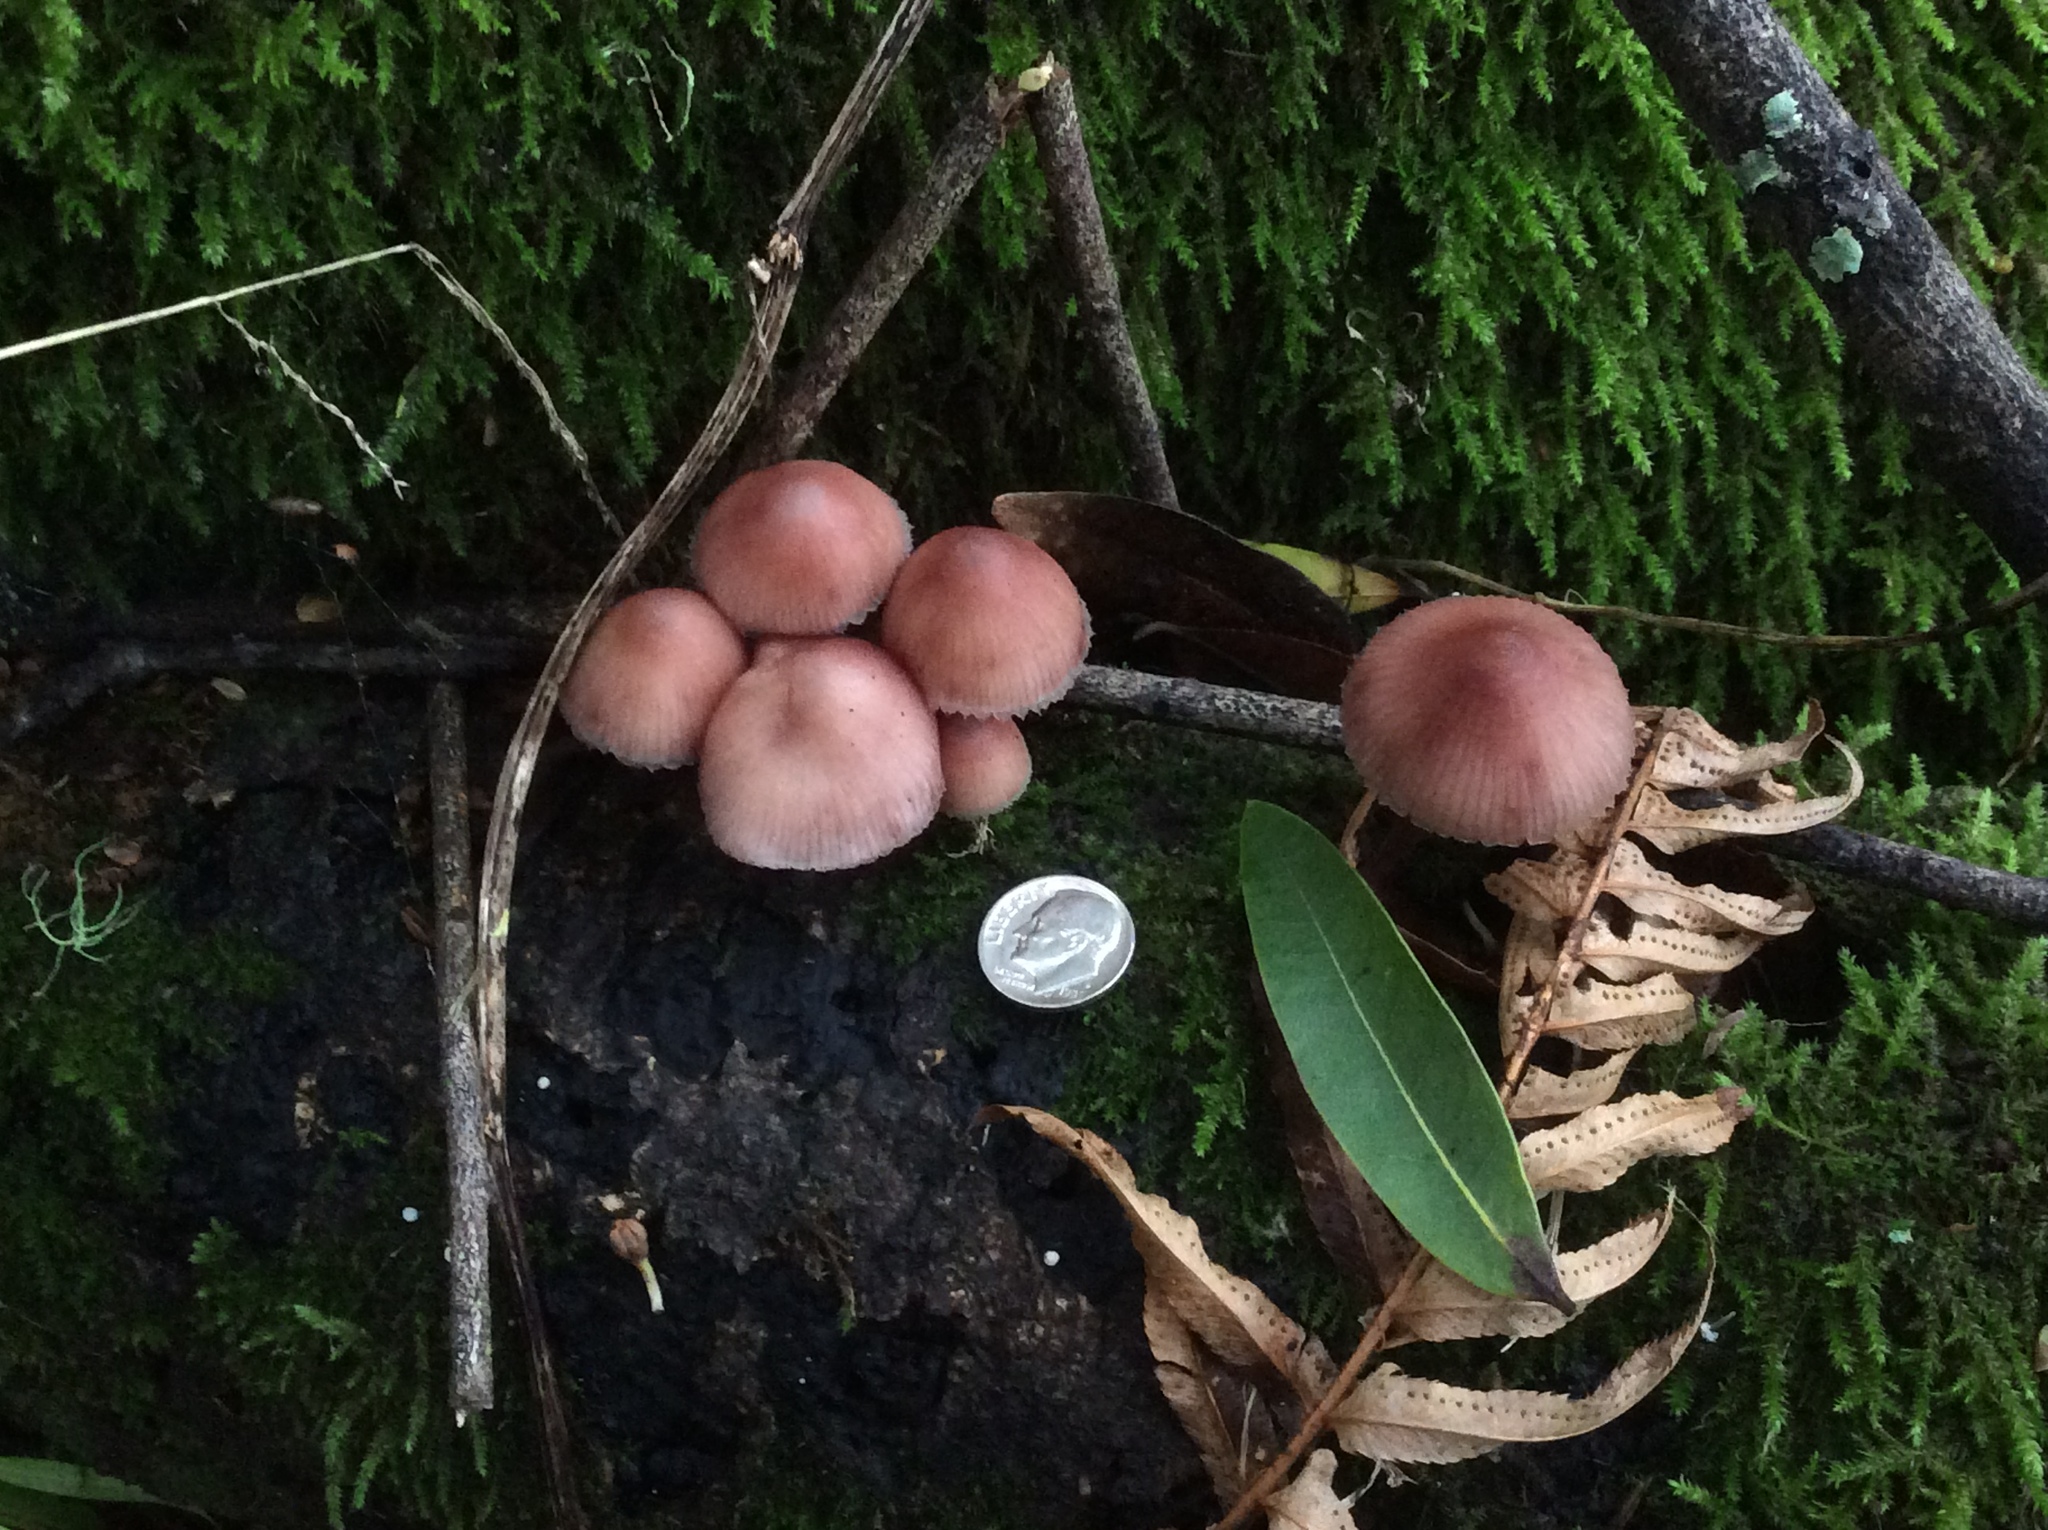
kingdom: Fungi
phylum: Basidiomycota
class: Agaricomycetes
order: Agaricales
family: Mycenaceae
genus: Mycena
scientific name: Mycena haematopus
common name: Burgundydrop bonnet
